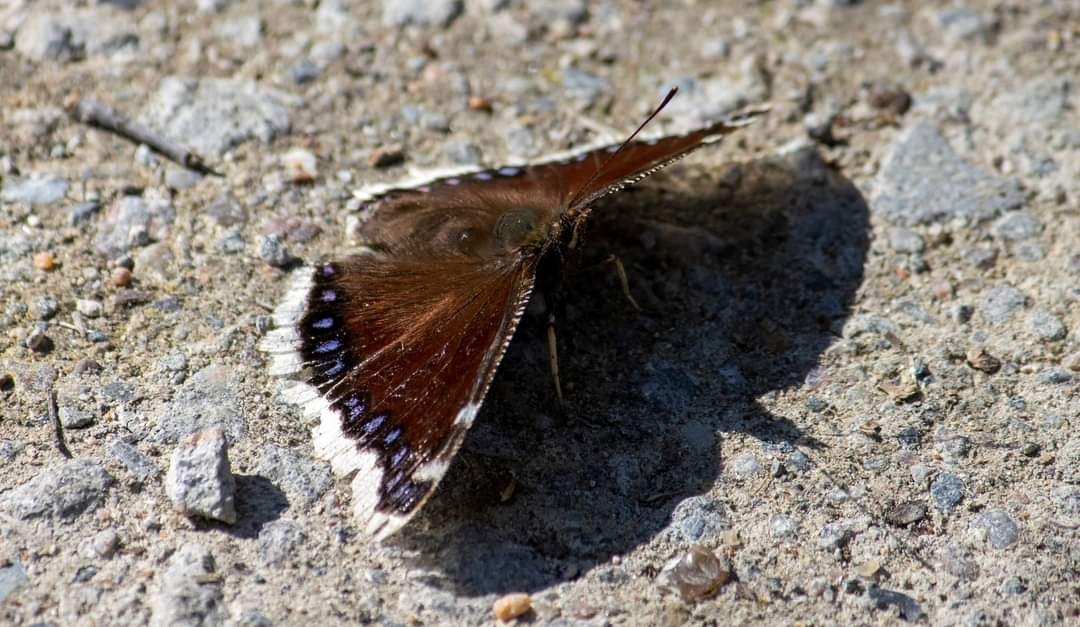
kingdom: Animalia
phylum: Arthropoda
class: Insecta
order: Lepidoptera
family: Nymphalidae
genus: Nymphalis
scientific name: Nymphalis antiopa
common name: Camberwell beauty
